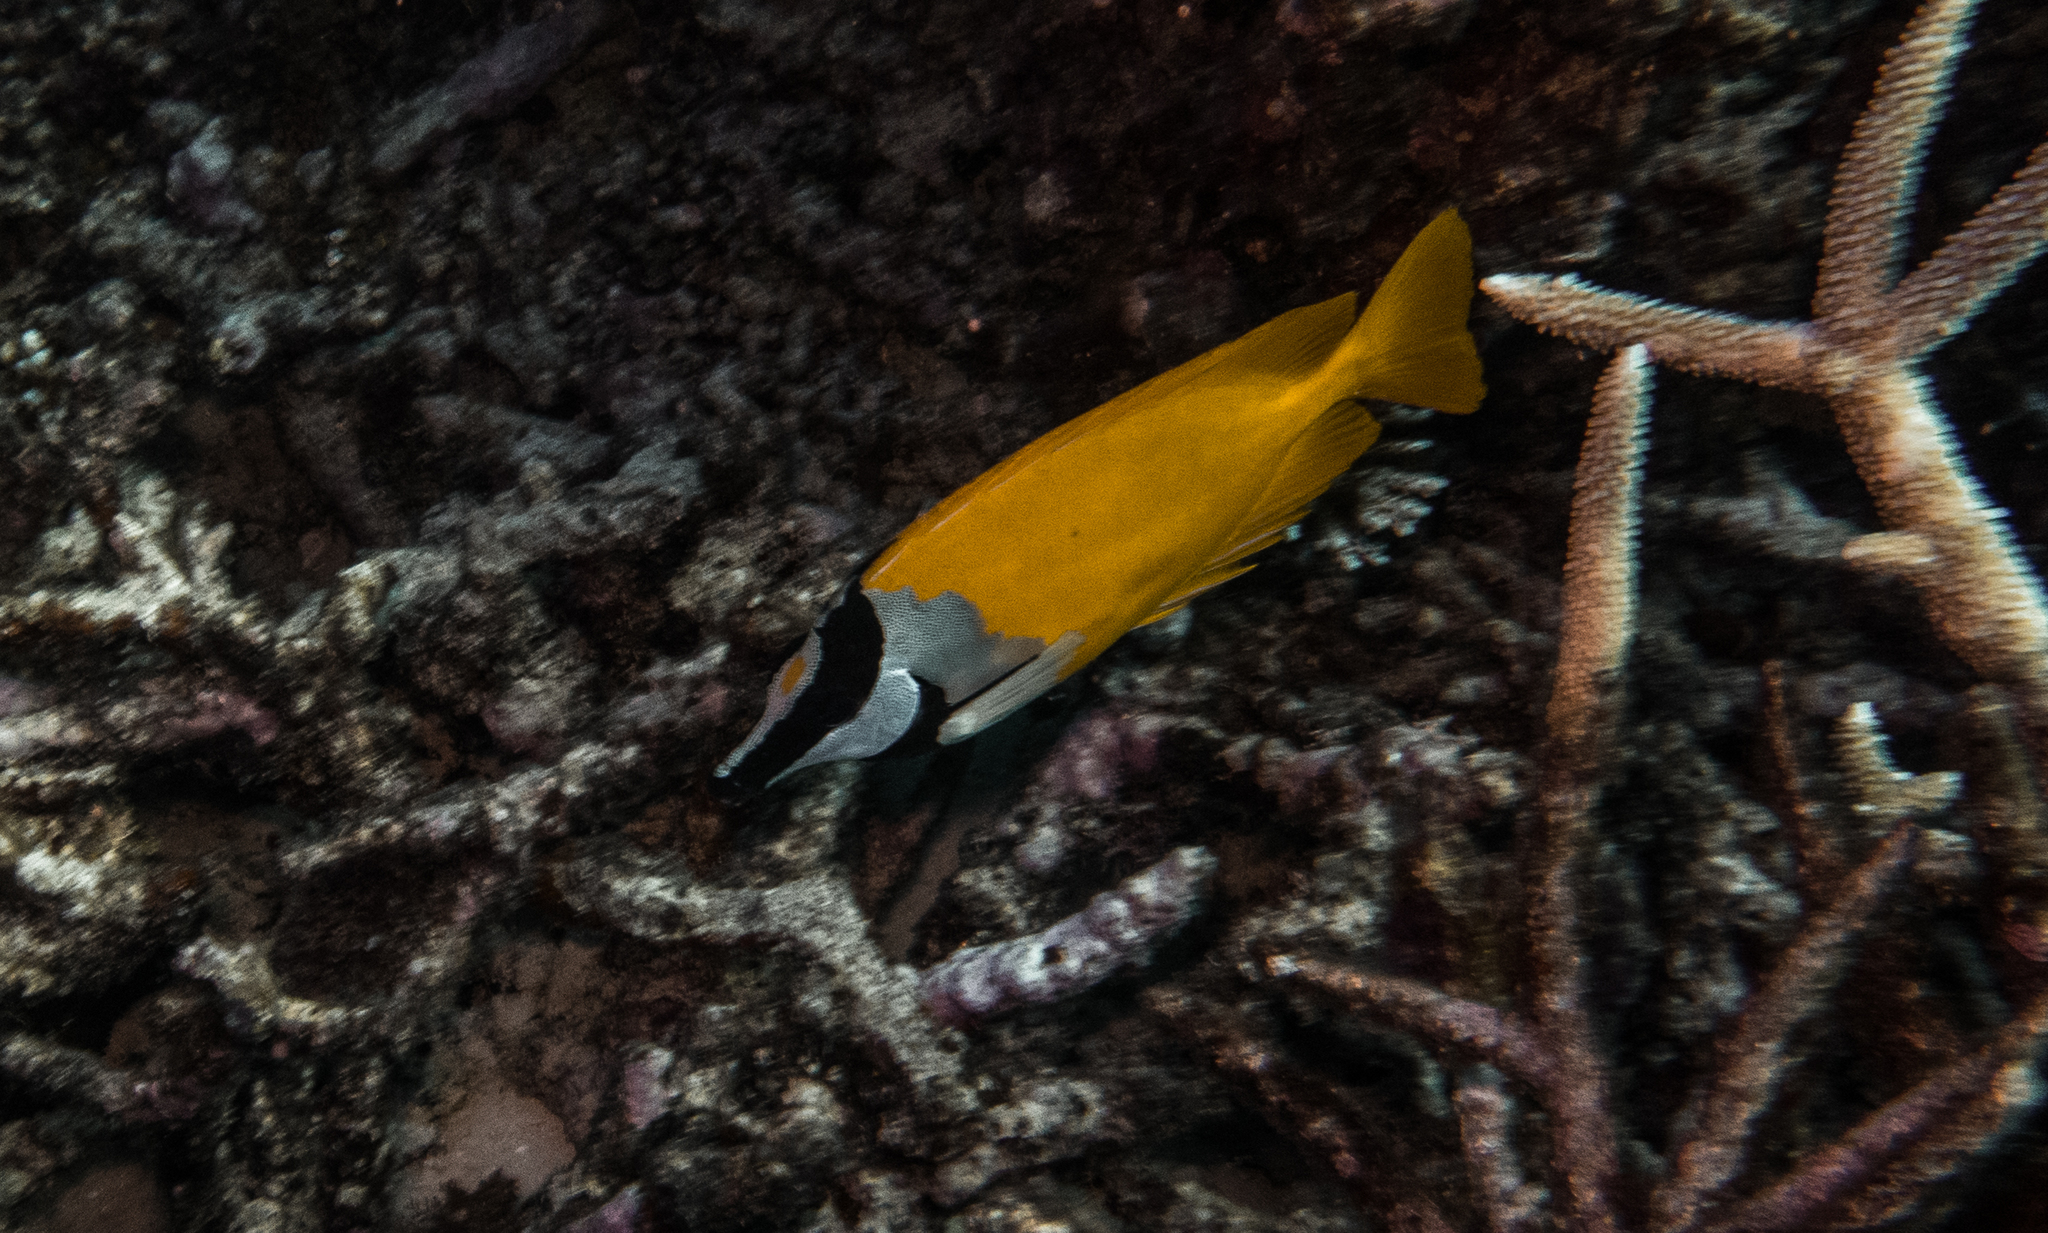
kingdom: Animalia
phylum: Chordata
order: Perciformes
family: Siganidae
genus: Siganus
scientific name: Siganus vulpinus
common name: Foxface
